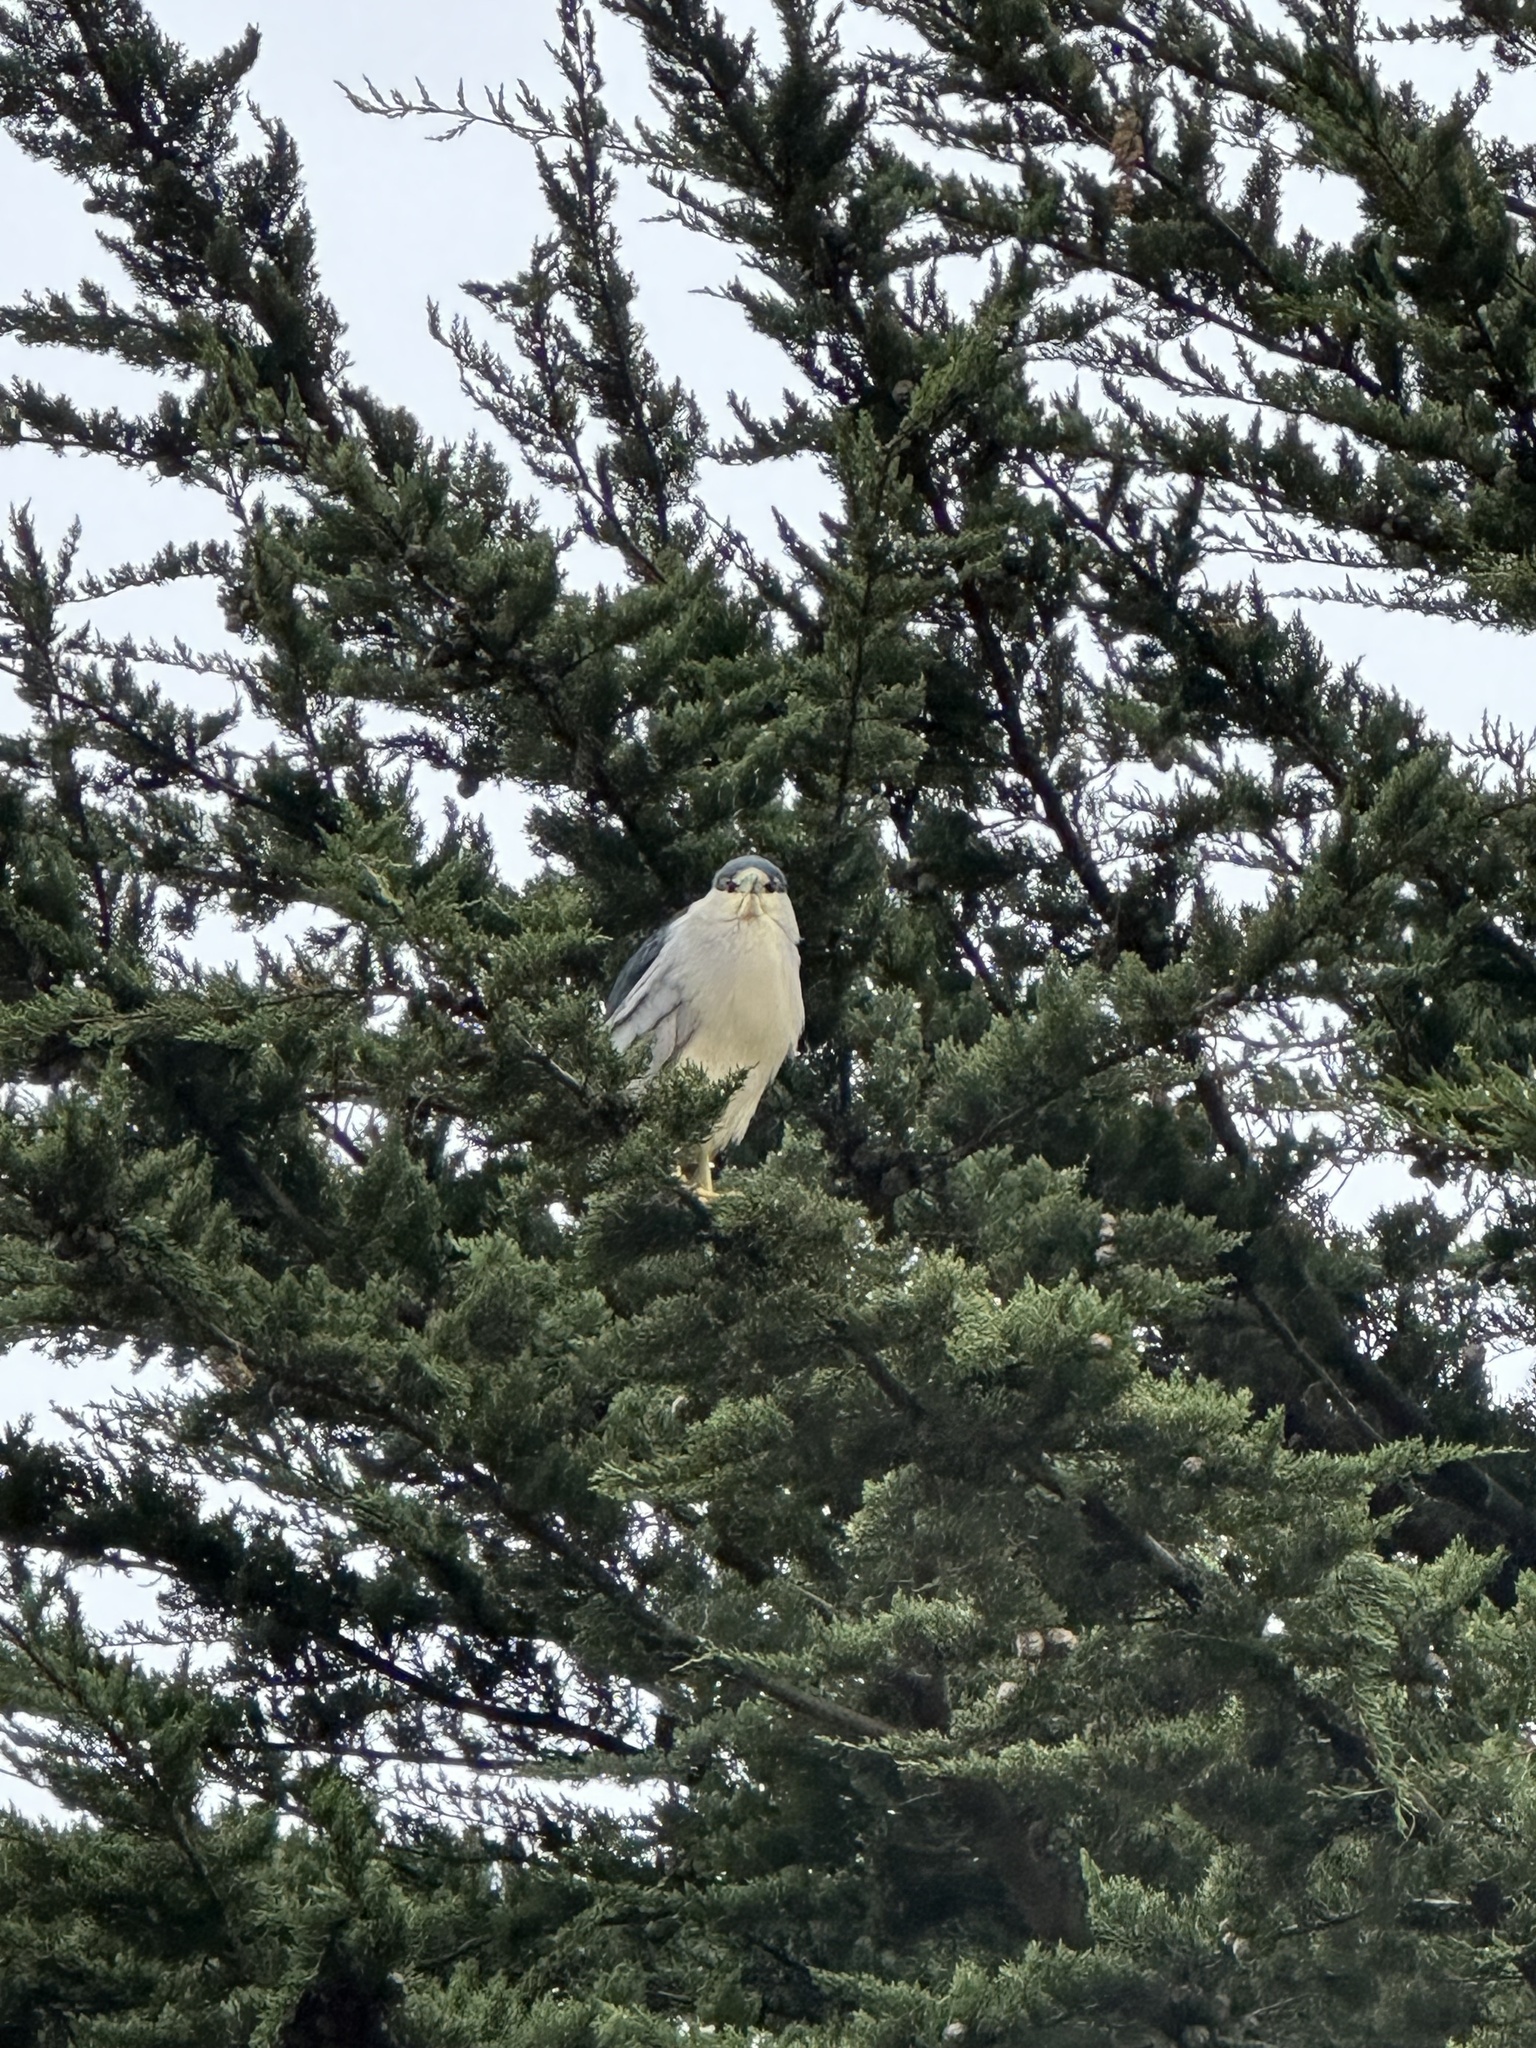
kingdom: Animalia
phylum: Chordata
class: Aves
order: Pelecaniformes
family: Ardeidae
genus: Nycticorax
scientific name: Nycticorax nycticorax
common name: Black-crowned night heron
